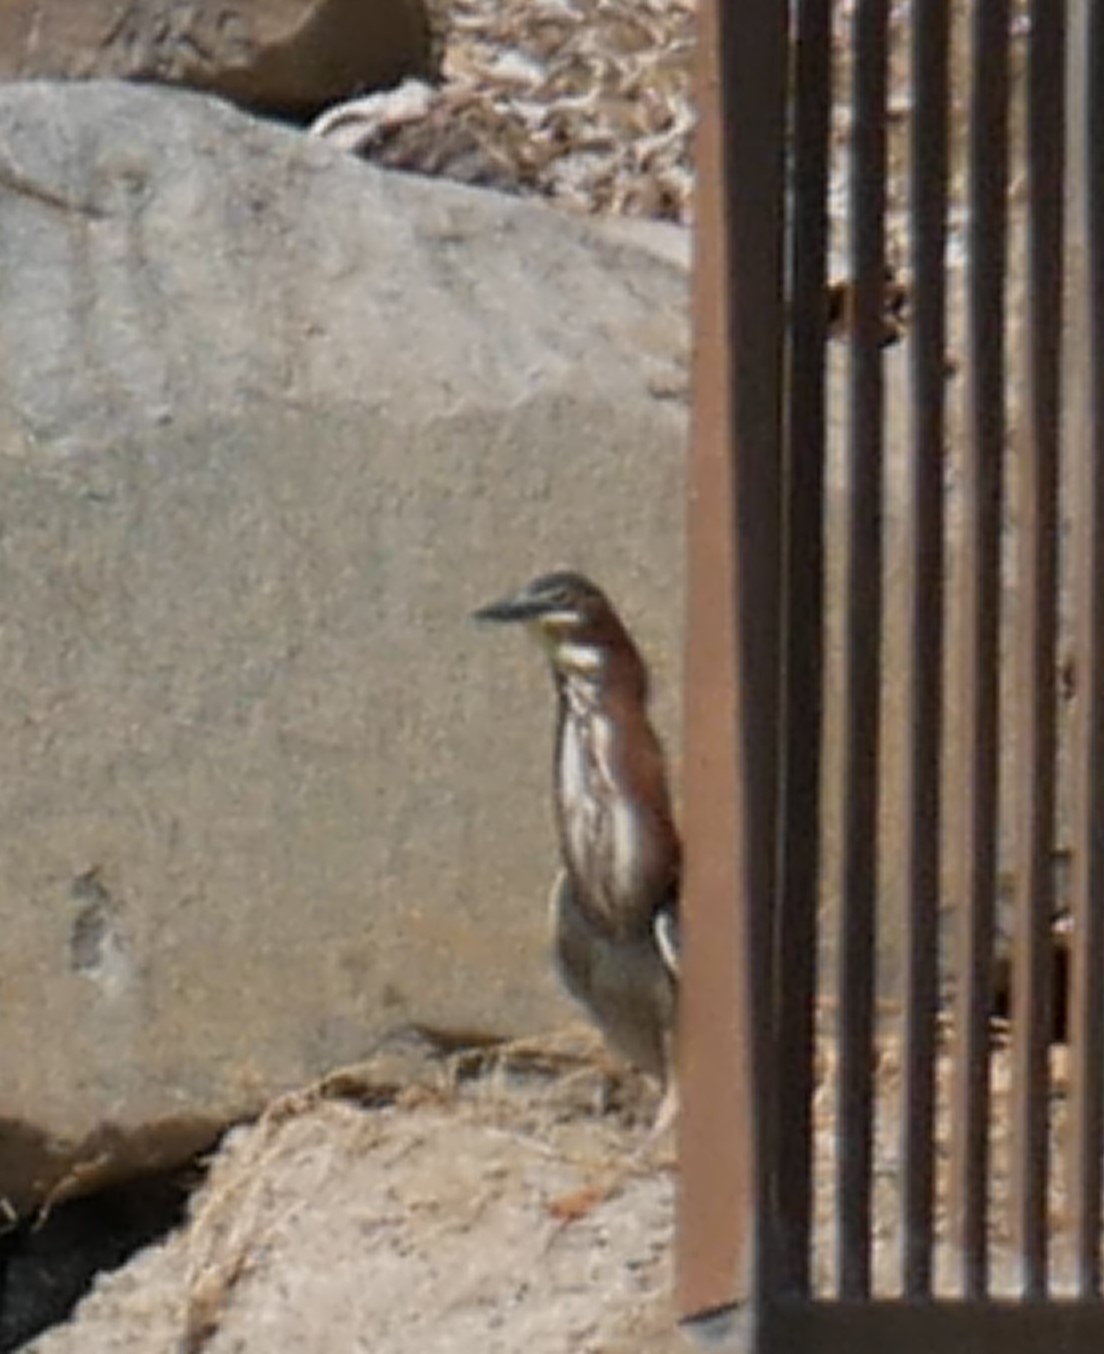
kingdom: Animalia
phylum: Chordata
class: Aves
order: Pelecaniformes
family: Ardeidae
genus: Butorides
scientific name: Butorides virescens
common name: Green heron
